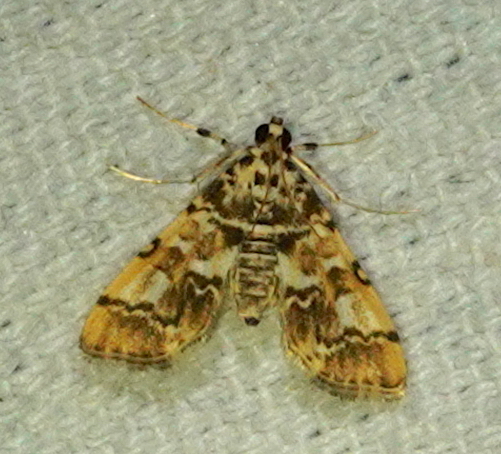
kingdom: Animalia
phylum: Arthropoda
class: Insecta
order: Lepidoptera
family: Crambidae
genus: Lamprosema
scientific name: Lamprosema commixta
